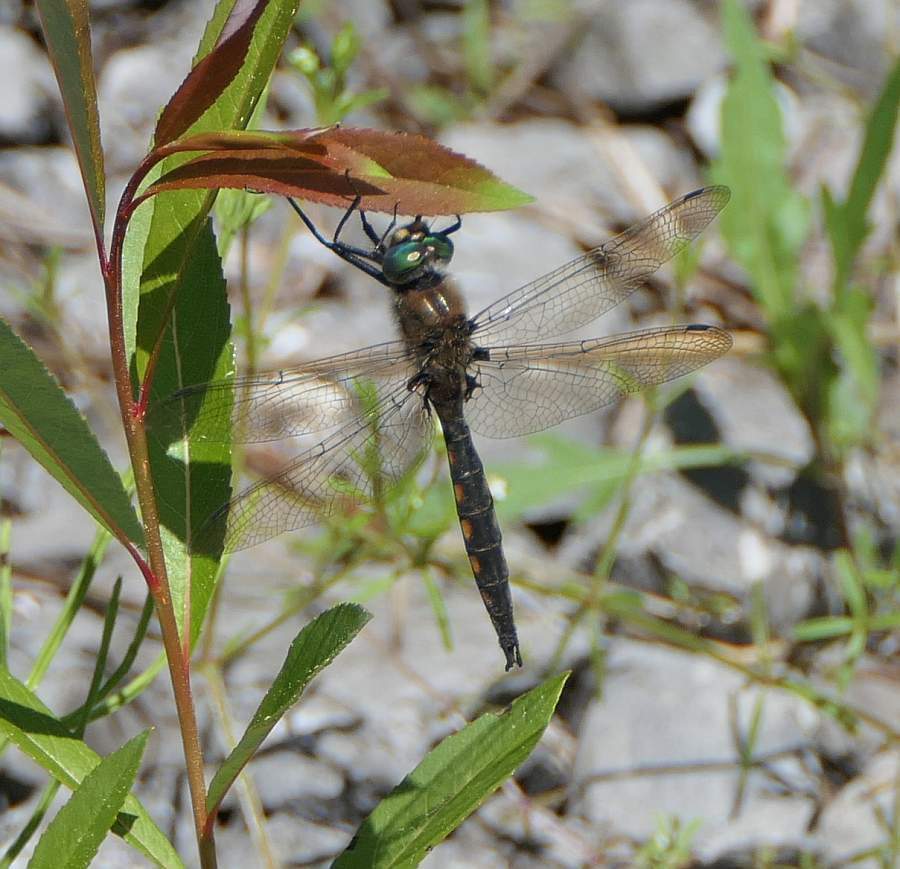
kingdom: Animalia
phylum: Arthropoda
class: Insecta
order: Odonata
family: Corduliidae
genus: Epitheca
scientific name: Epitheca canis
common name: Beaverpond baskettail
